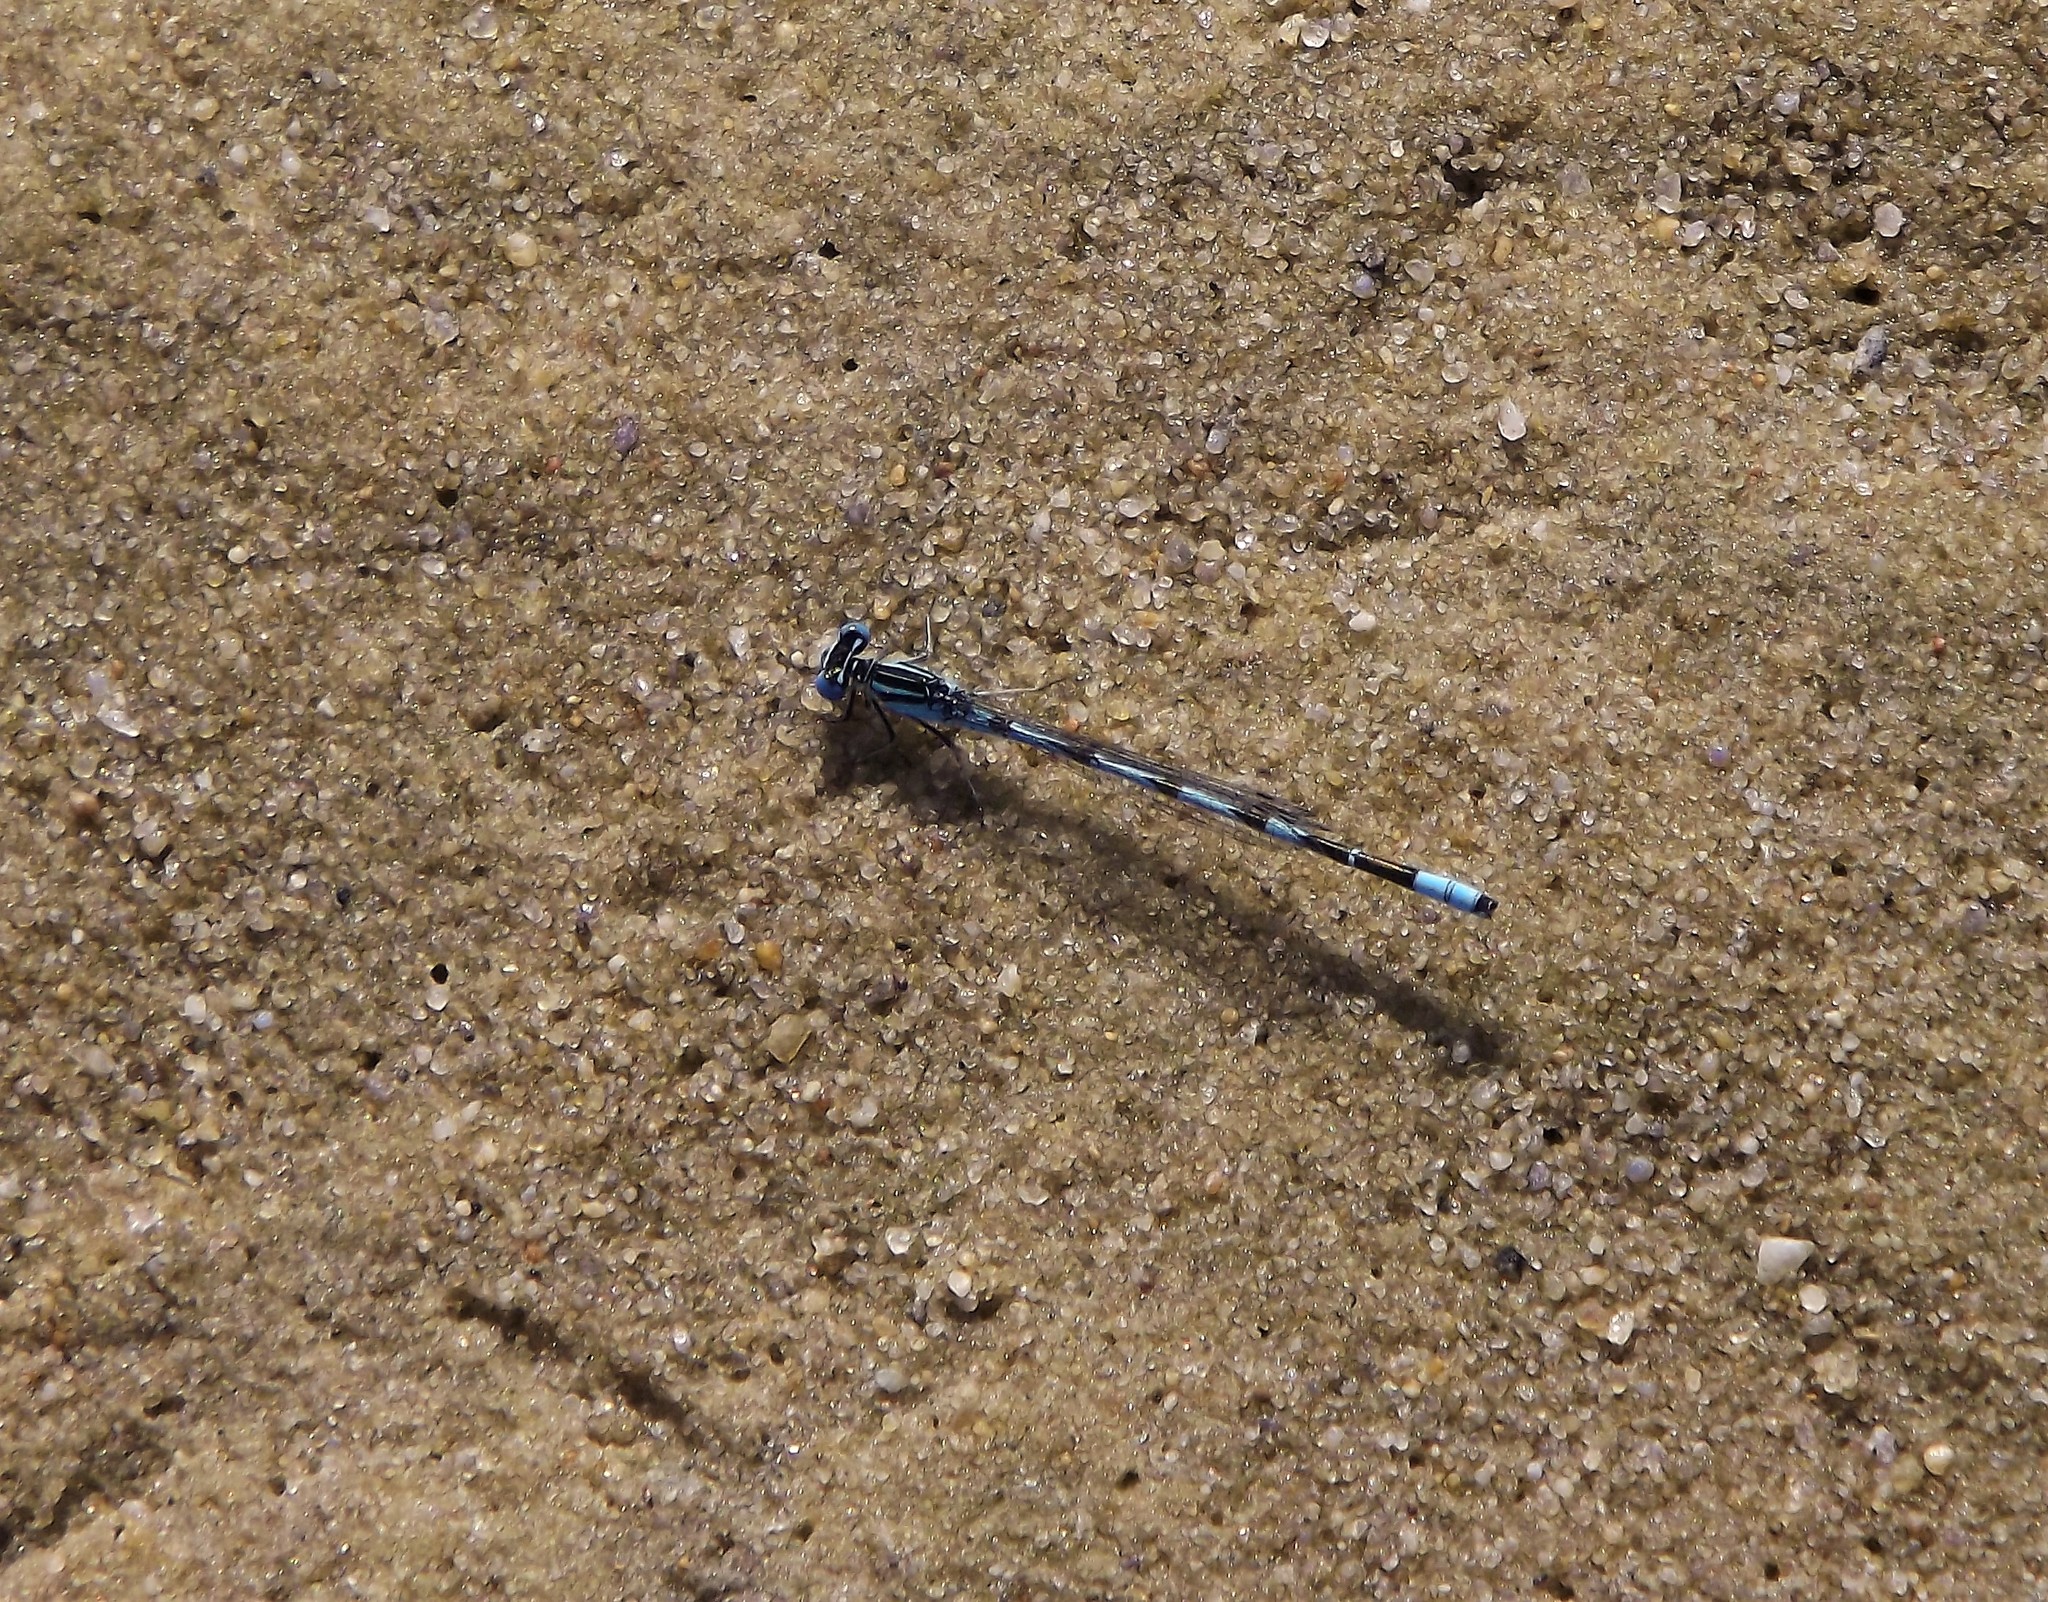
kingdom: Animalia
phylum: Arthropoda
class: Insecta
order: Odonata
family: Coenagrionidae
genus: Enallagma
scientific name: Enallagma durum
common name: Big bluet
